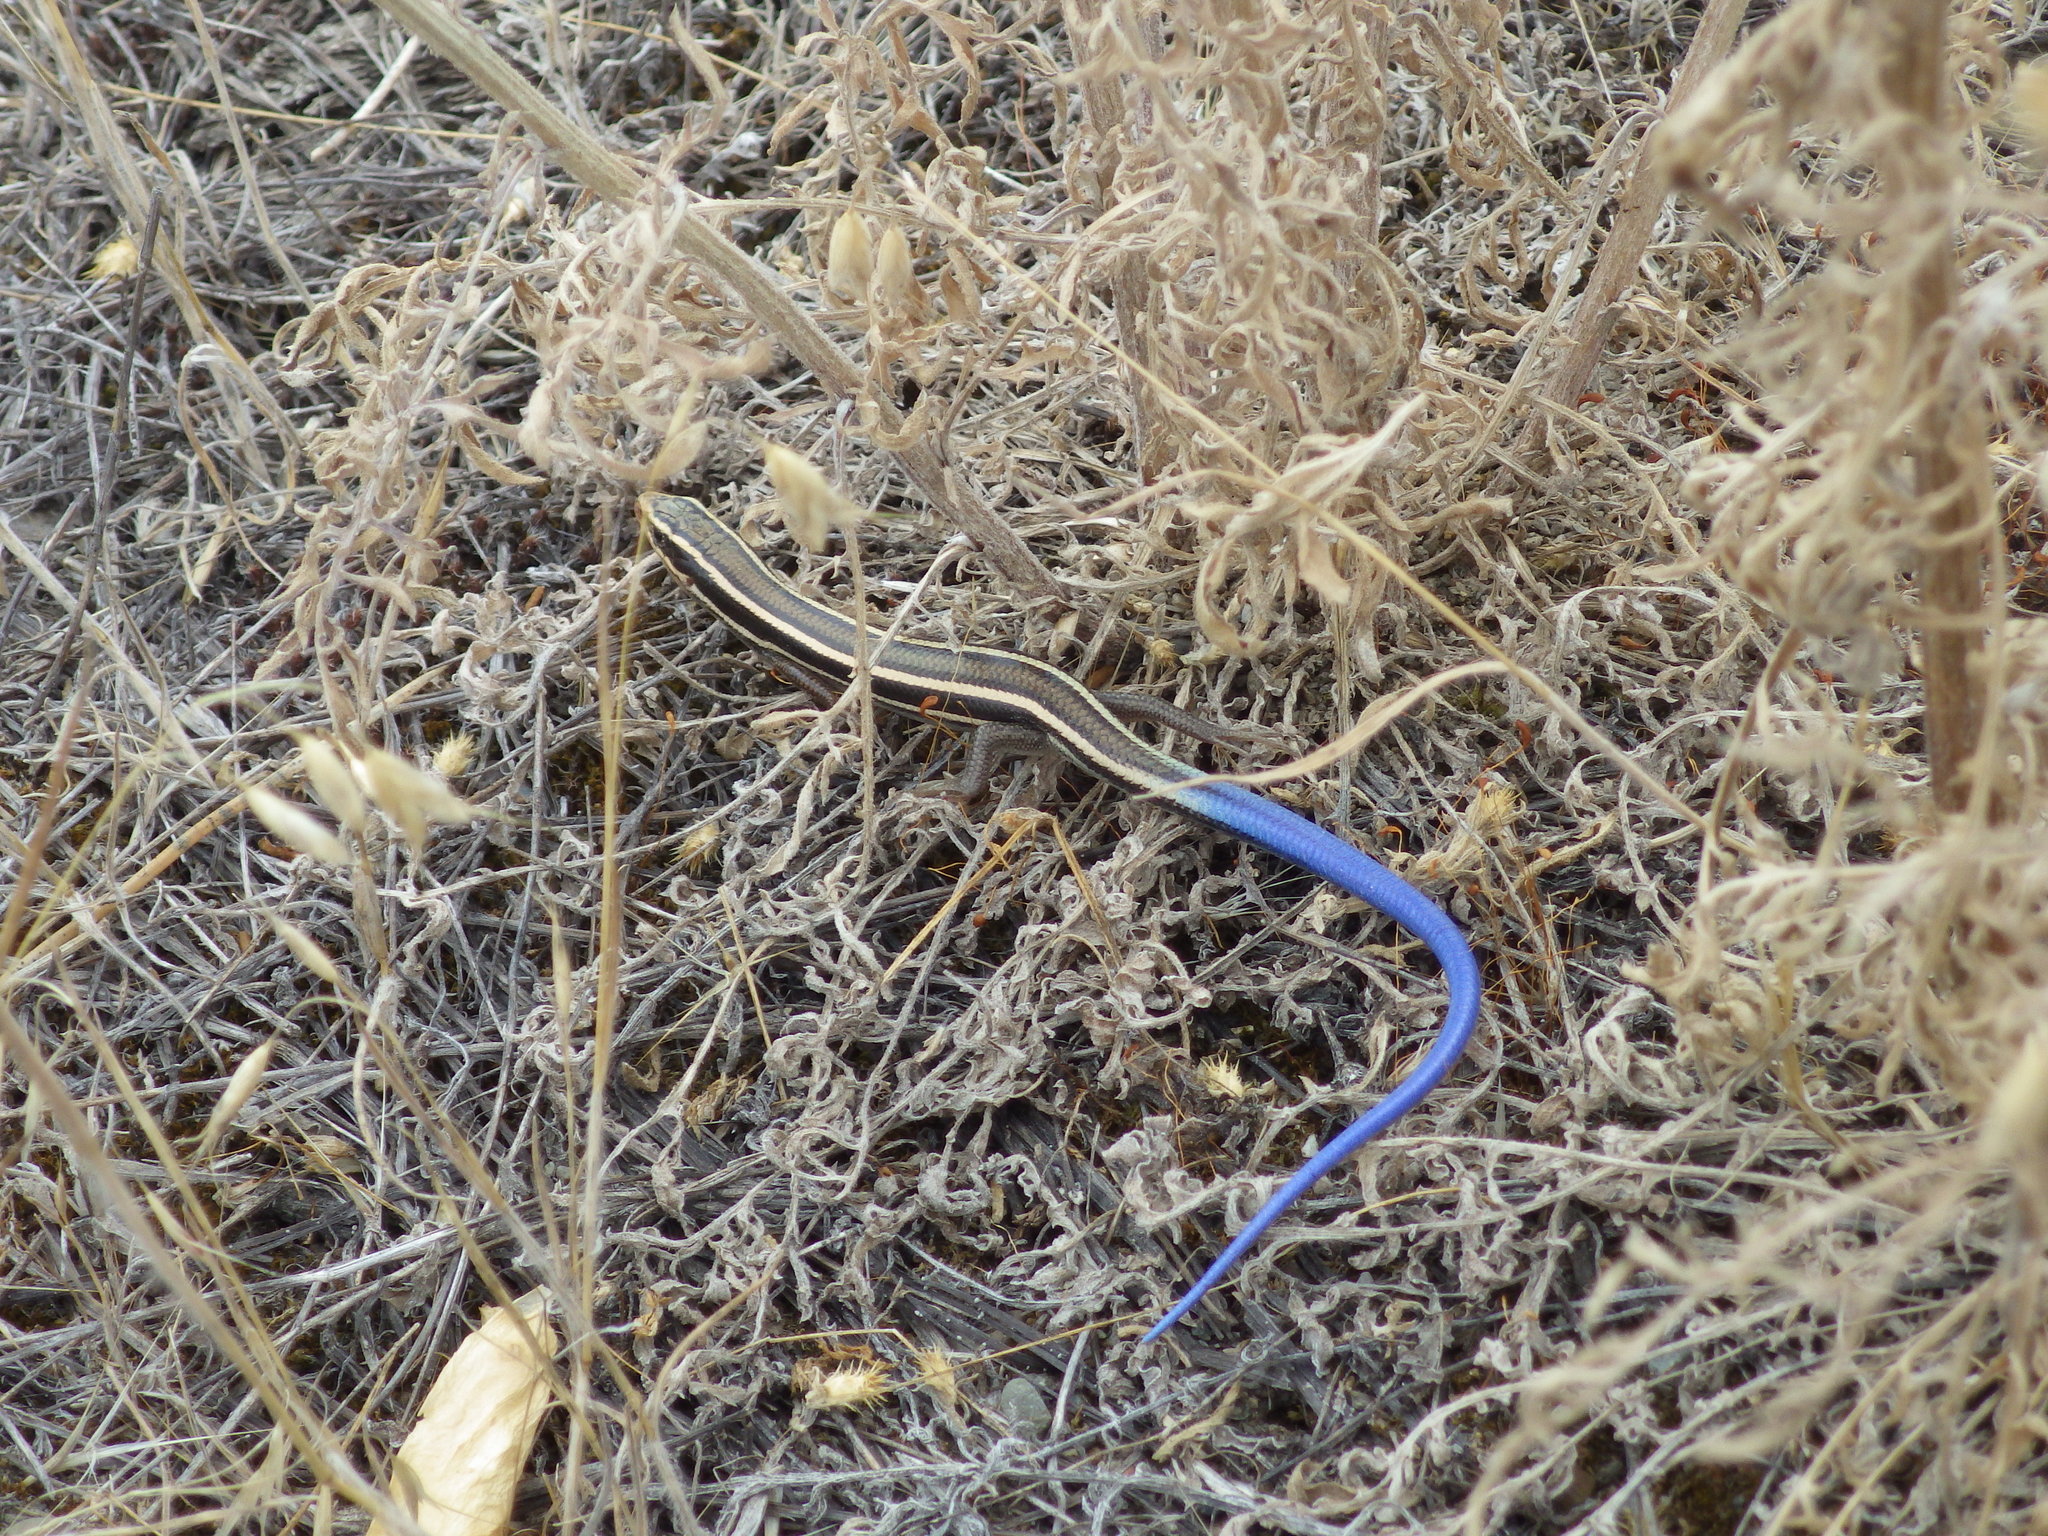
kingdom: Animalia
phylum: Chordata
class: Squamata
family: Scincidae
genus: Plestiodon
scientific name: Plestiodon skiltonianus
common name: Coronado island skink [interparietalis]
